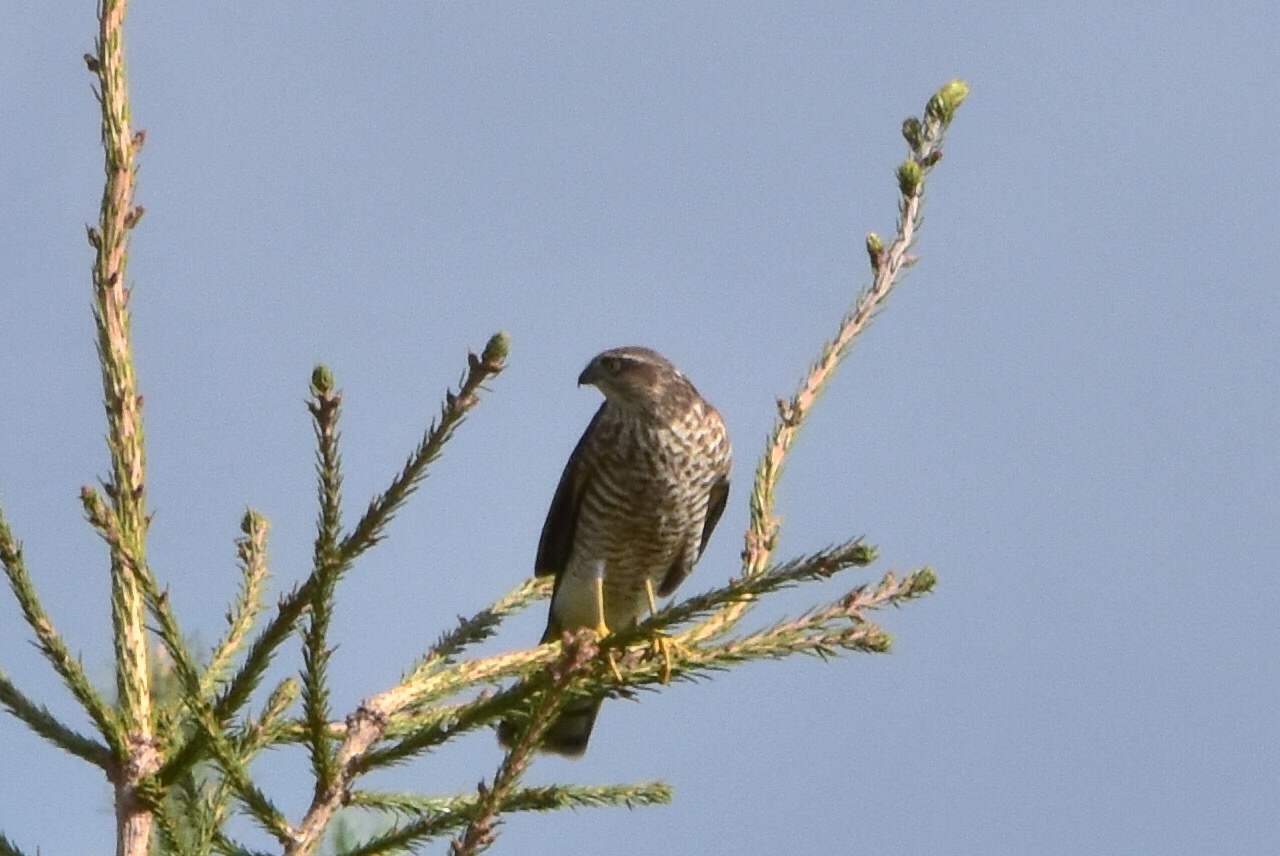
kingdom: Animalia
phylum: Chordata
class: Aves
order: Accipitriformes
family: Accipitridae
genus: Accipiter
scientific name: Accipiter nisus
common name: Eurasian sparrowhawk
